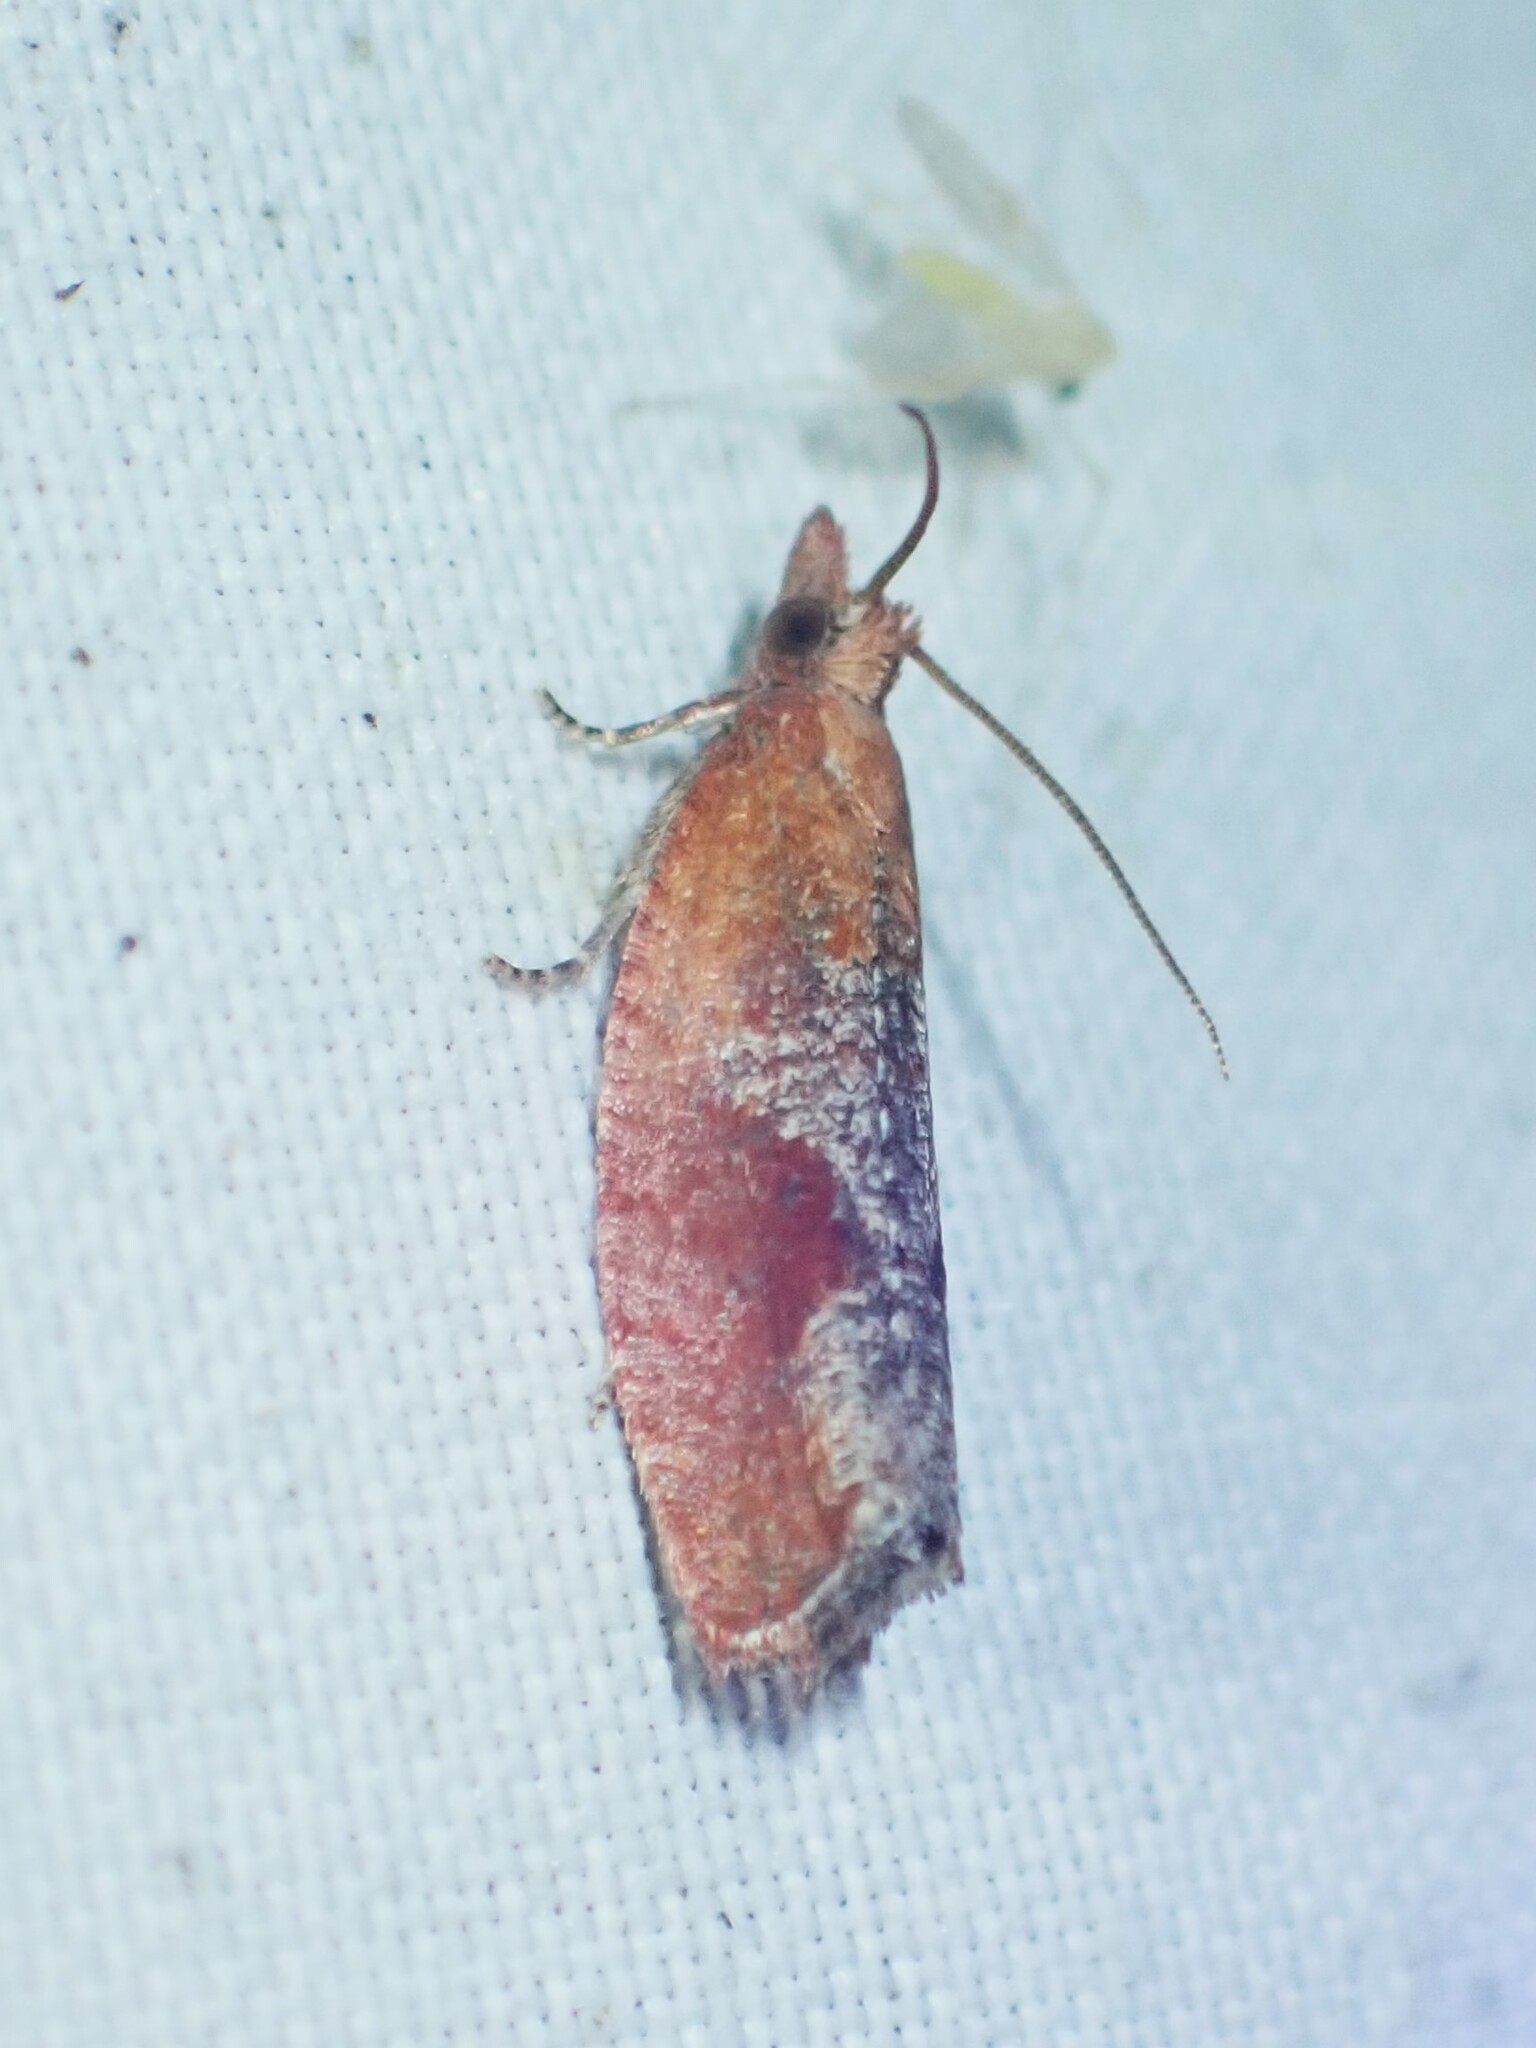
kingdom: Animalia
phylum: Arthropoda
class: Insecta
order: Lepidoptera
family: Tortricidae
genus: Epinotia
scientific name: Epinotia septemberana
